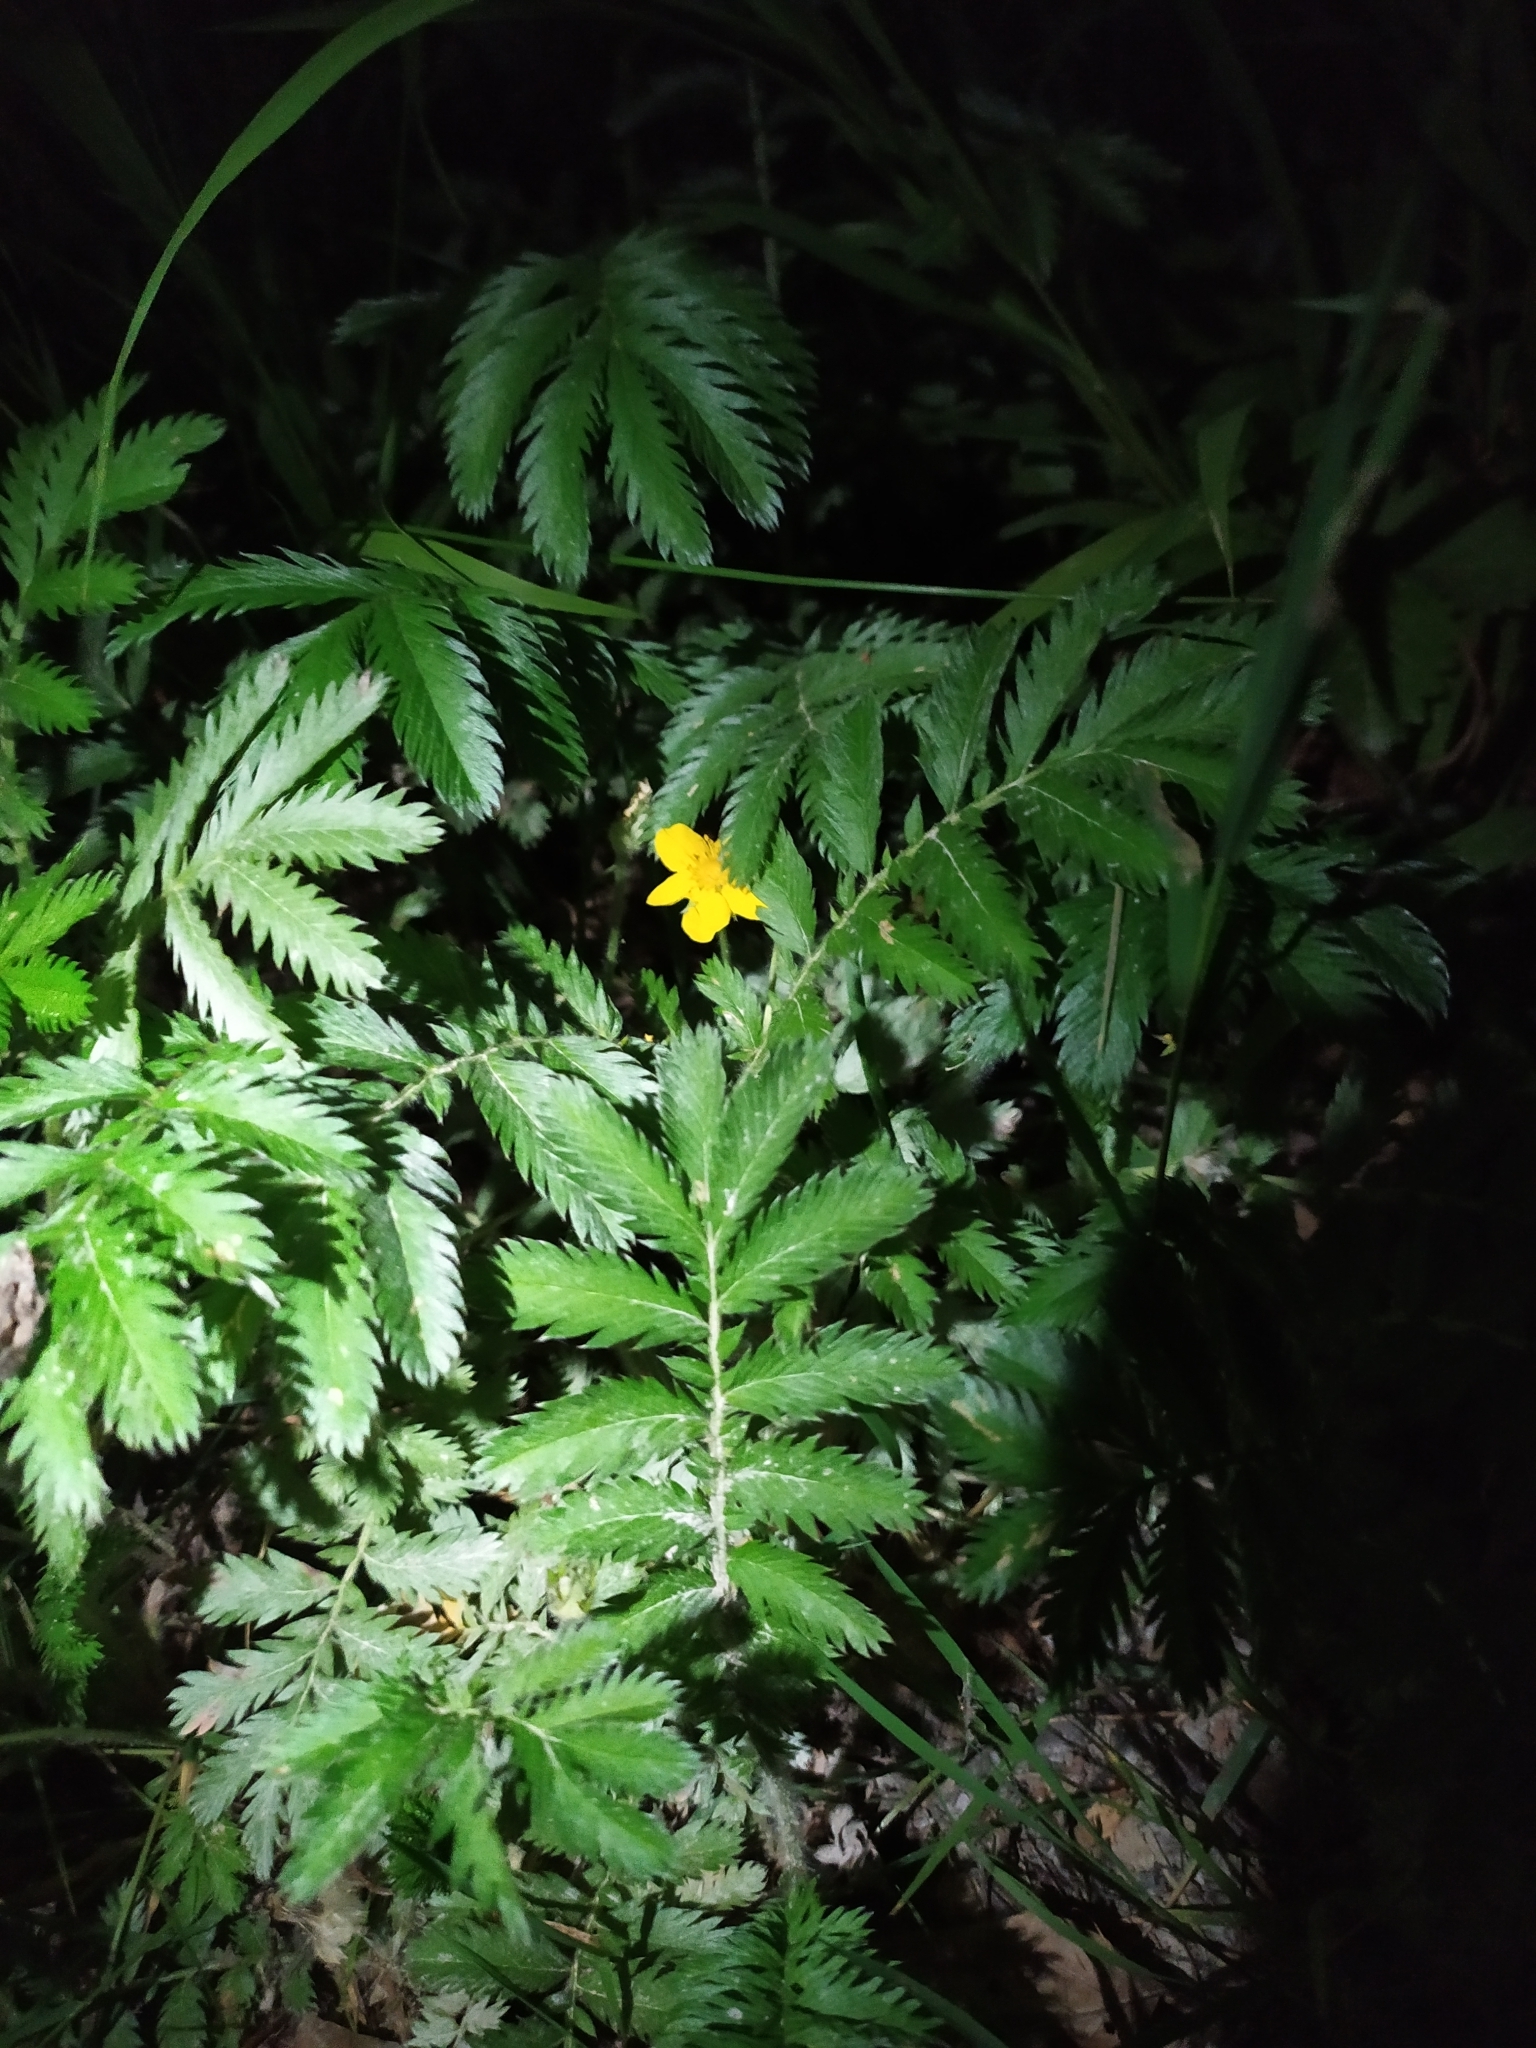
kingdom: Plantae
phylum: Tracheophyta
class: Magnoliopsida
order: Rosales
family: Rosaceae
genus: Argentina
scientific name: Argentina anserina
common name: Common silverweed
